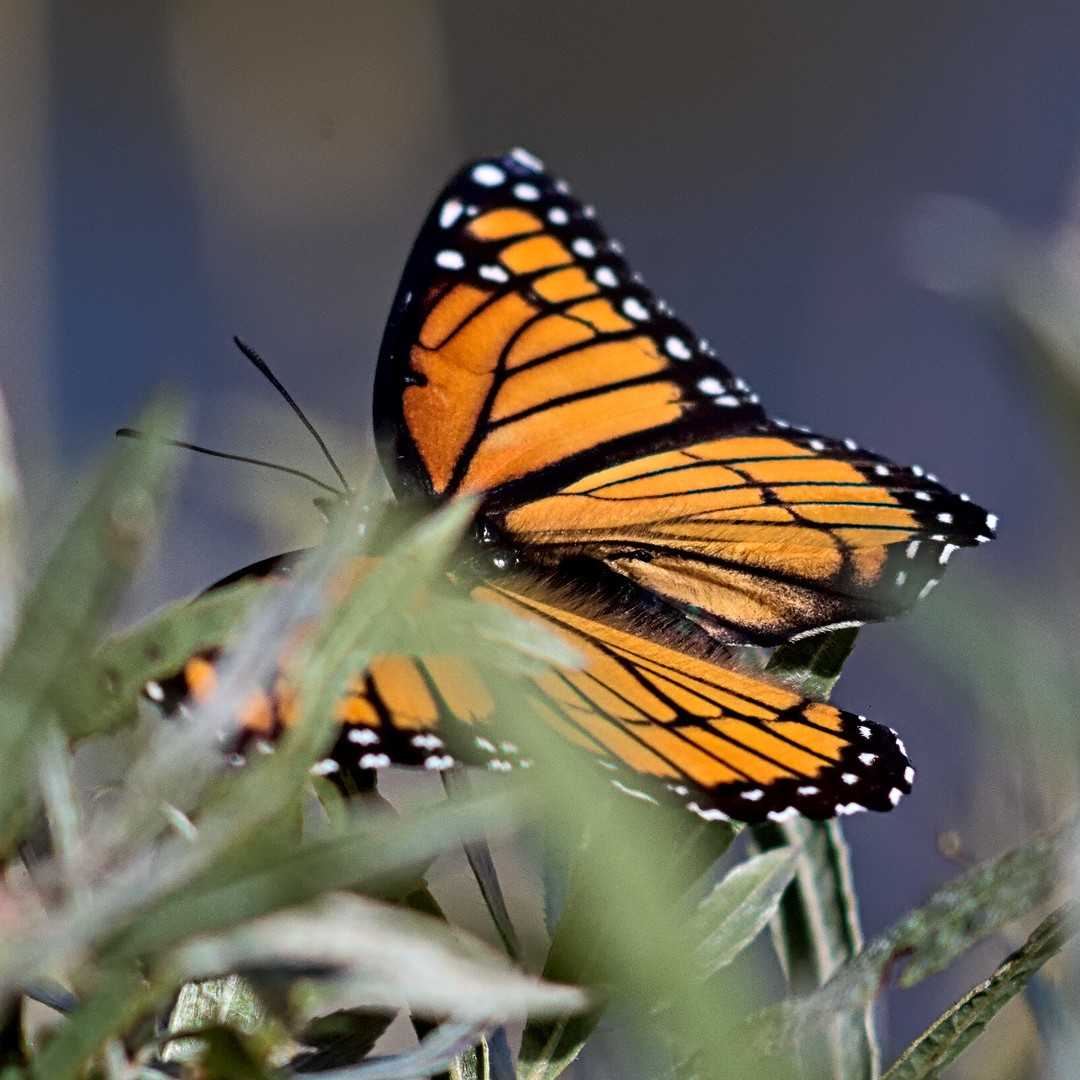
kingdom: Animalia
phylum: Arthropoda
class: Insecta
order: Lepidoptera
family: Nymphalidae
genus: Limenitis
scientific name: Limenitis archippus
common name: Viceroy
